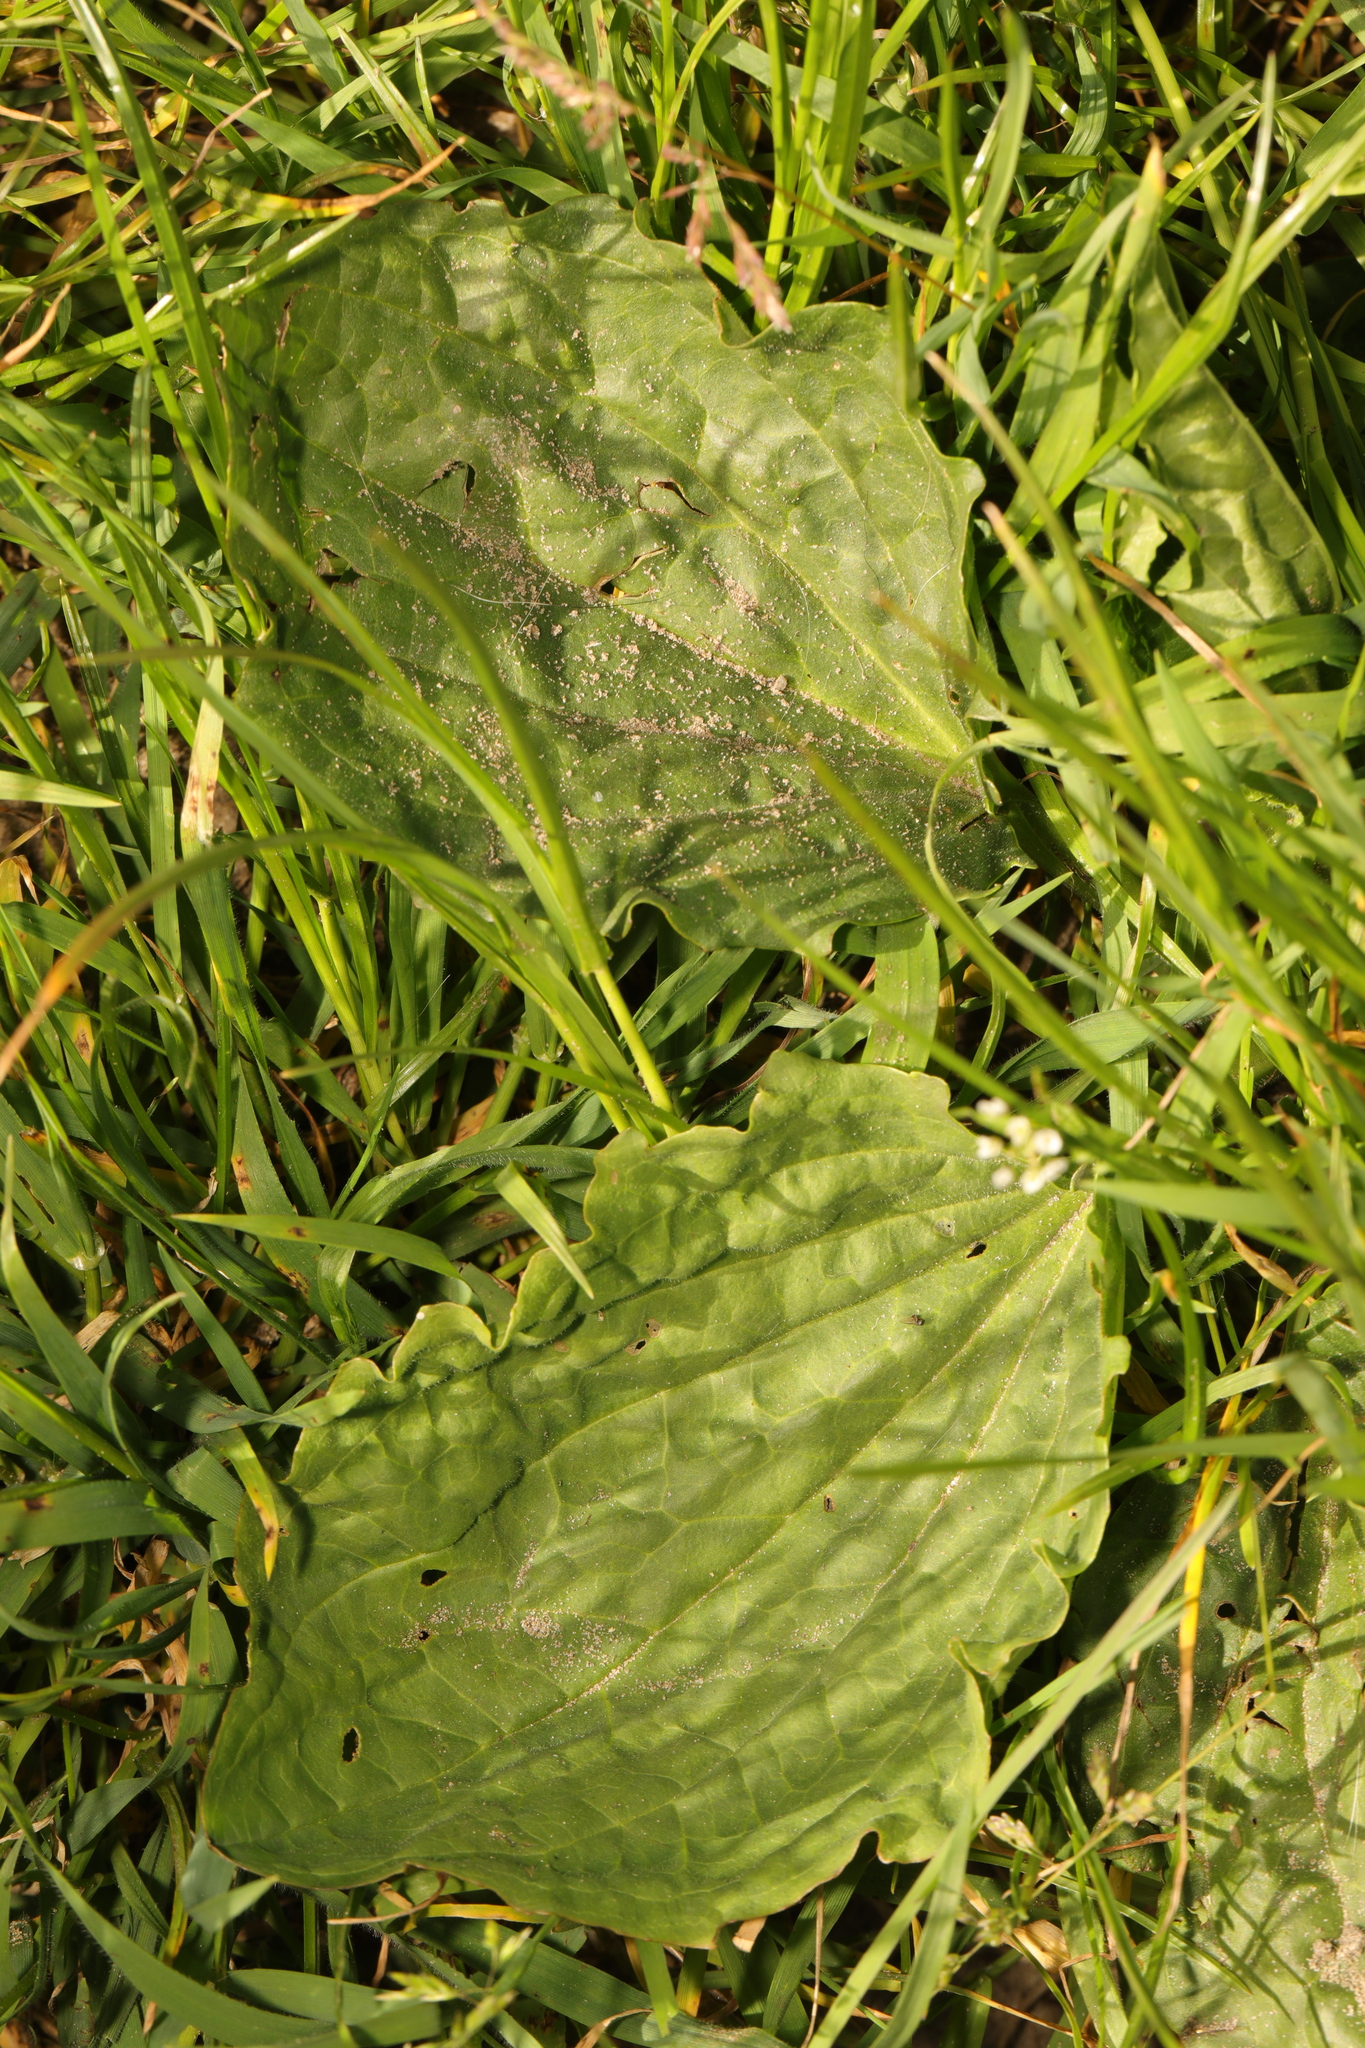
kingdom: Plantae
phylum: Tracheophyta
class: Magnoliopsida
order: Lamiales
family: Plantaginaceae
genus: Plantago
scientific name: Plantago major
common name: Common plantain
